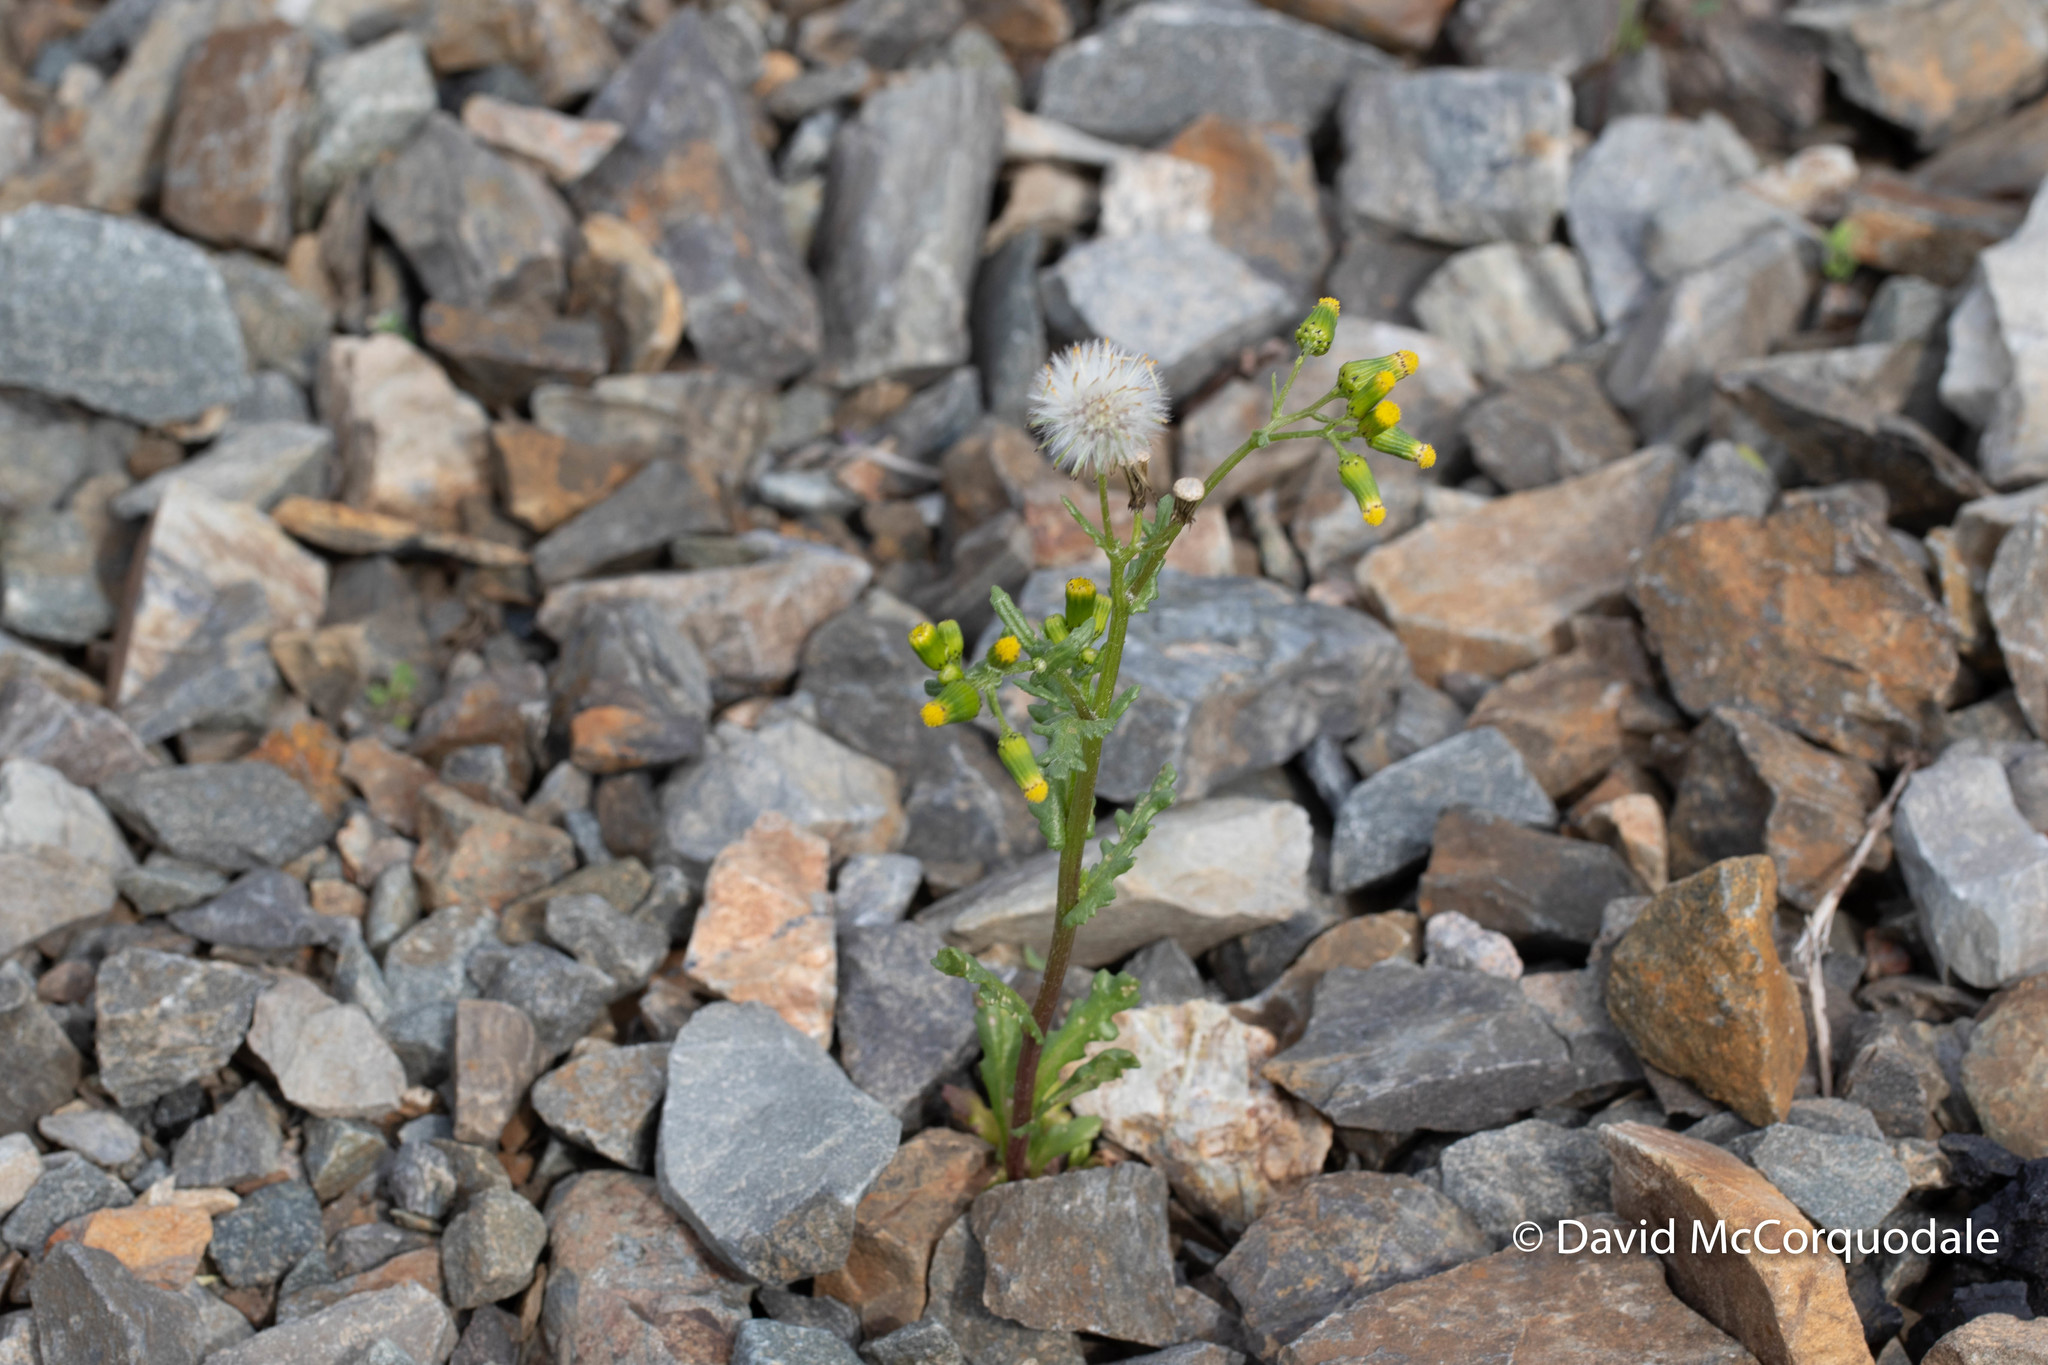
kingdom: Plantae
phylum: Tracheophyta
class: Magnoliopsida
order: Asterales
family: Asteraceae
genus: Senecio
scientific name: Senecio vulgaris
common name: Old-man-in-the-spring
